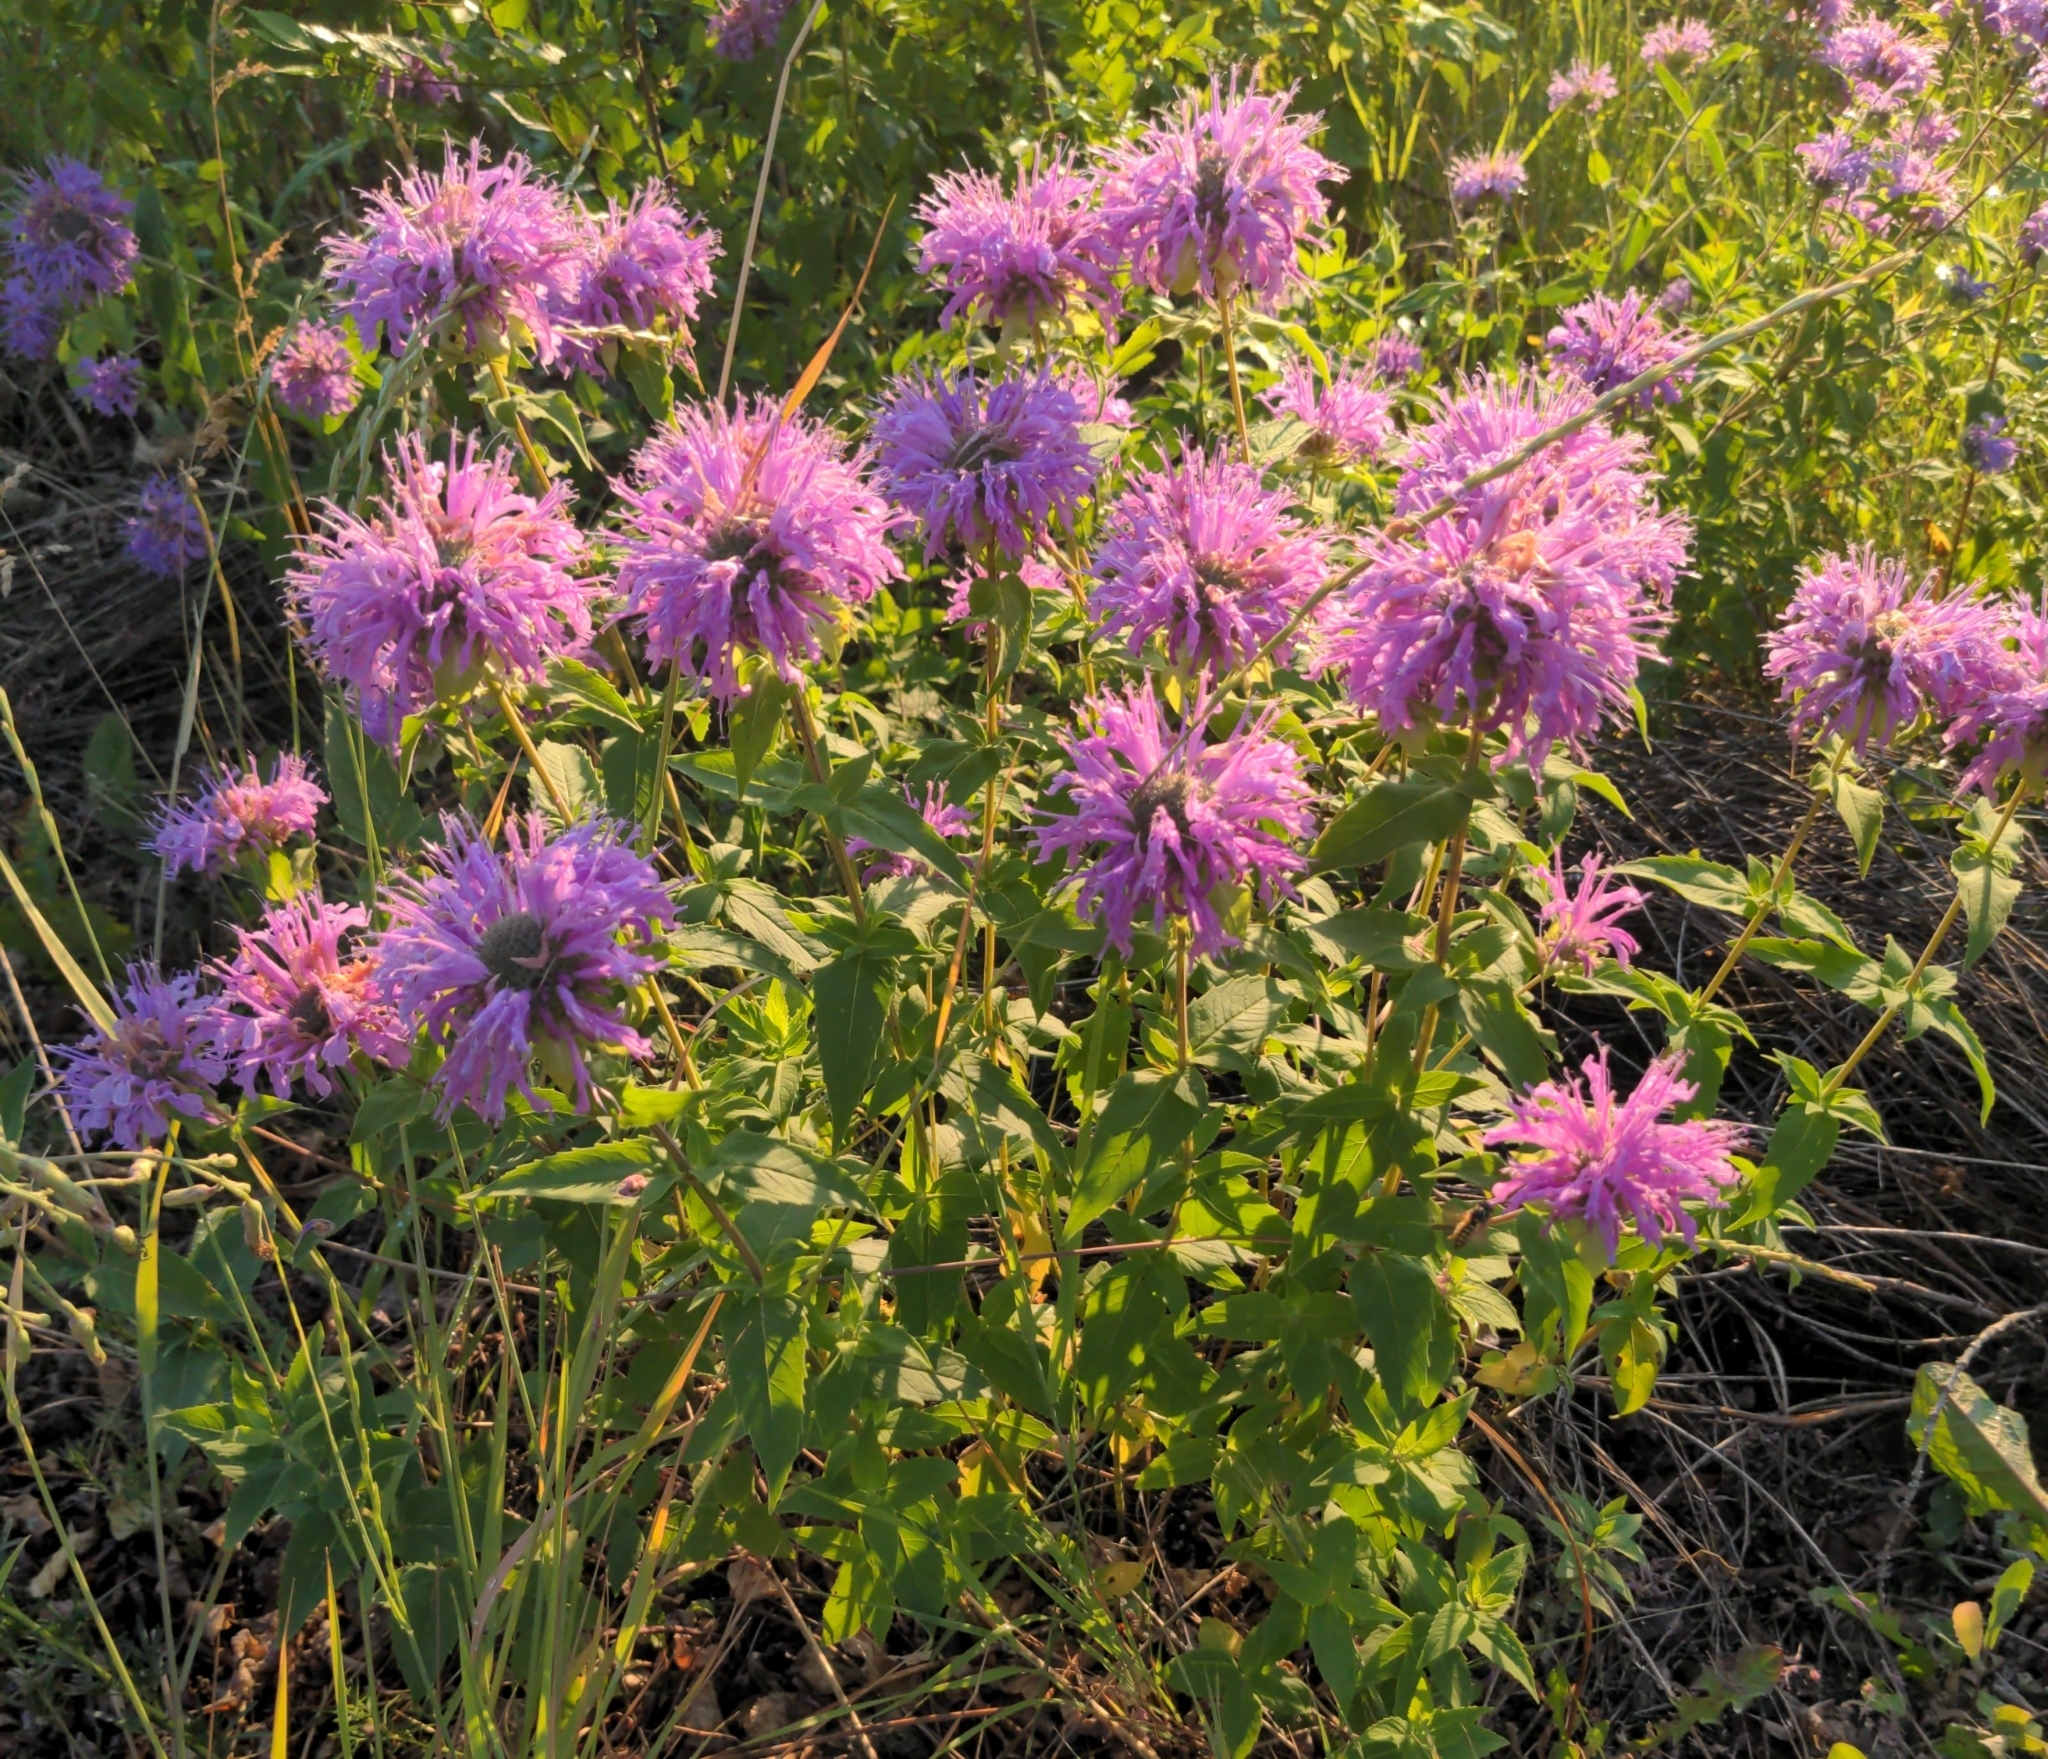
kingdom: Plantae
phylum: Tracheophyta
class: Magnoliopsida
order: Lamiales
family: Lamiaceae
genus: Monarda
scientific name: Monarda fistulosa
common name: Purple beebalm
